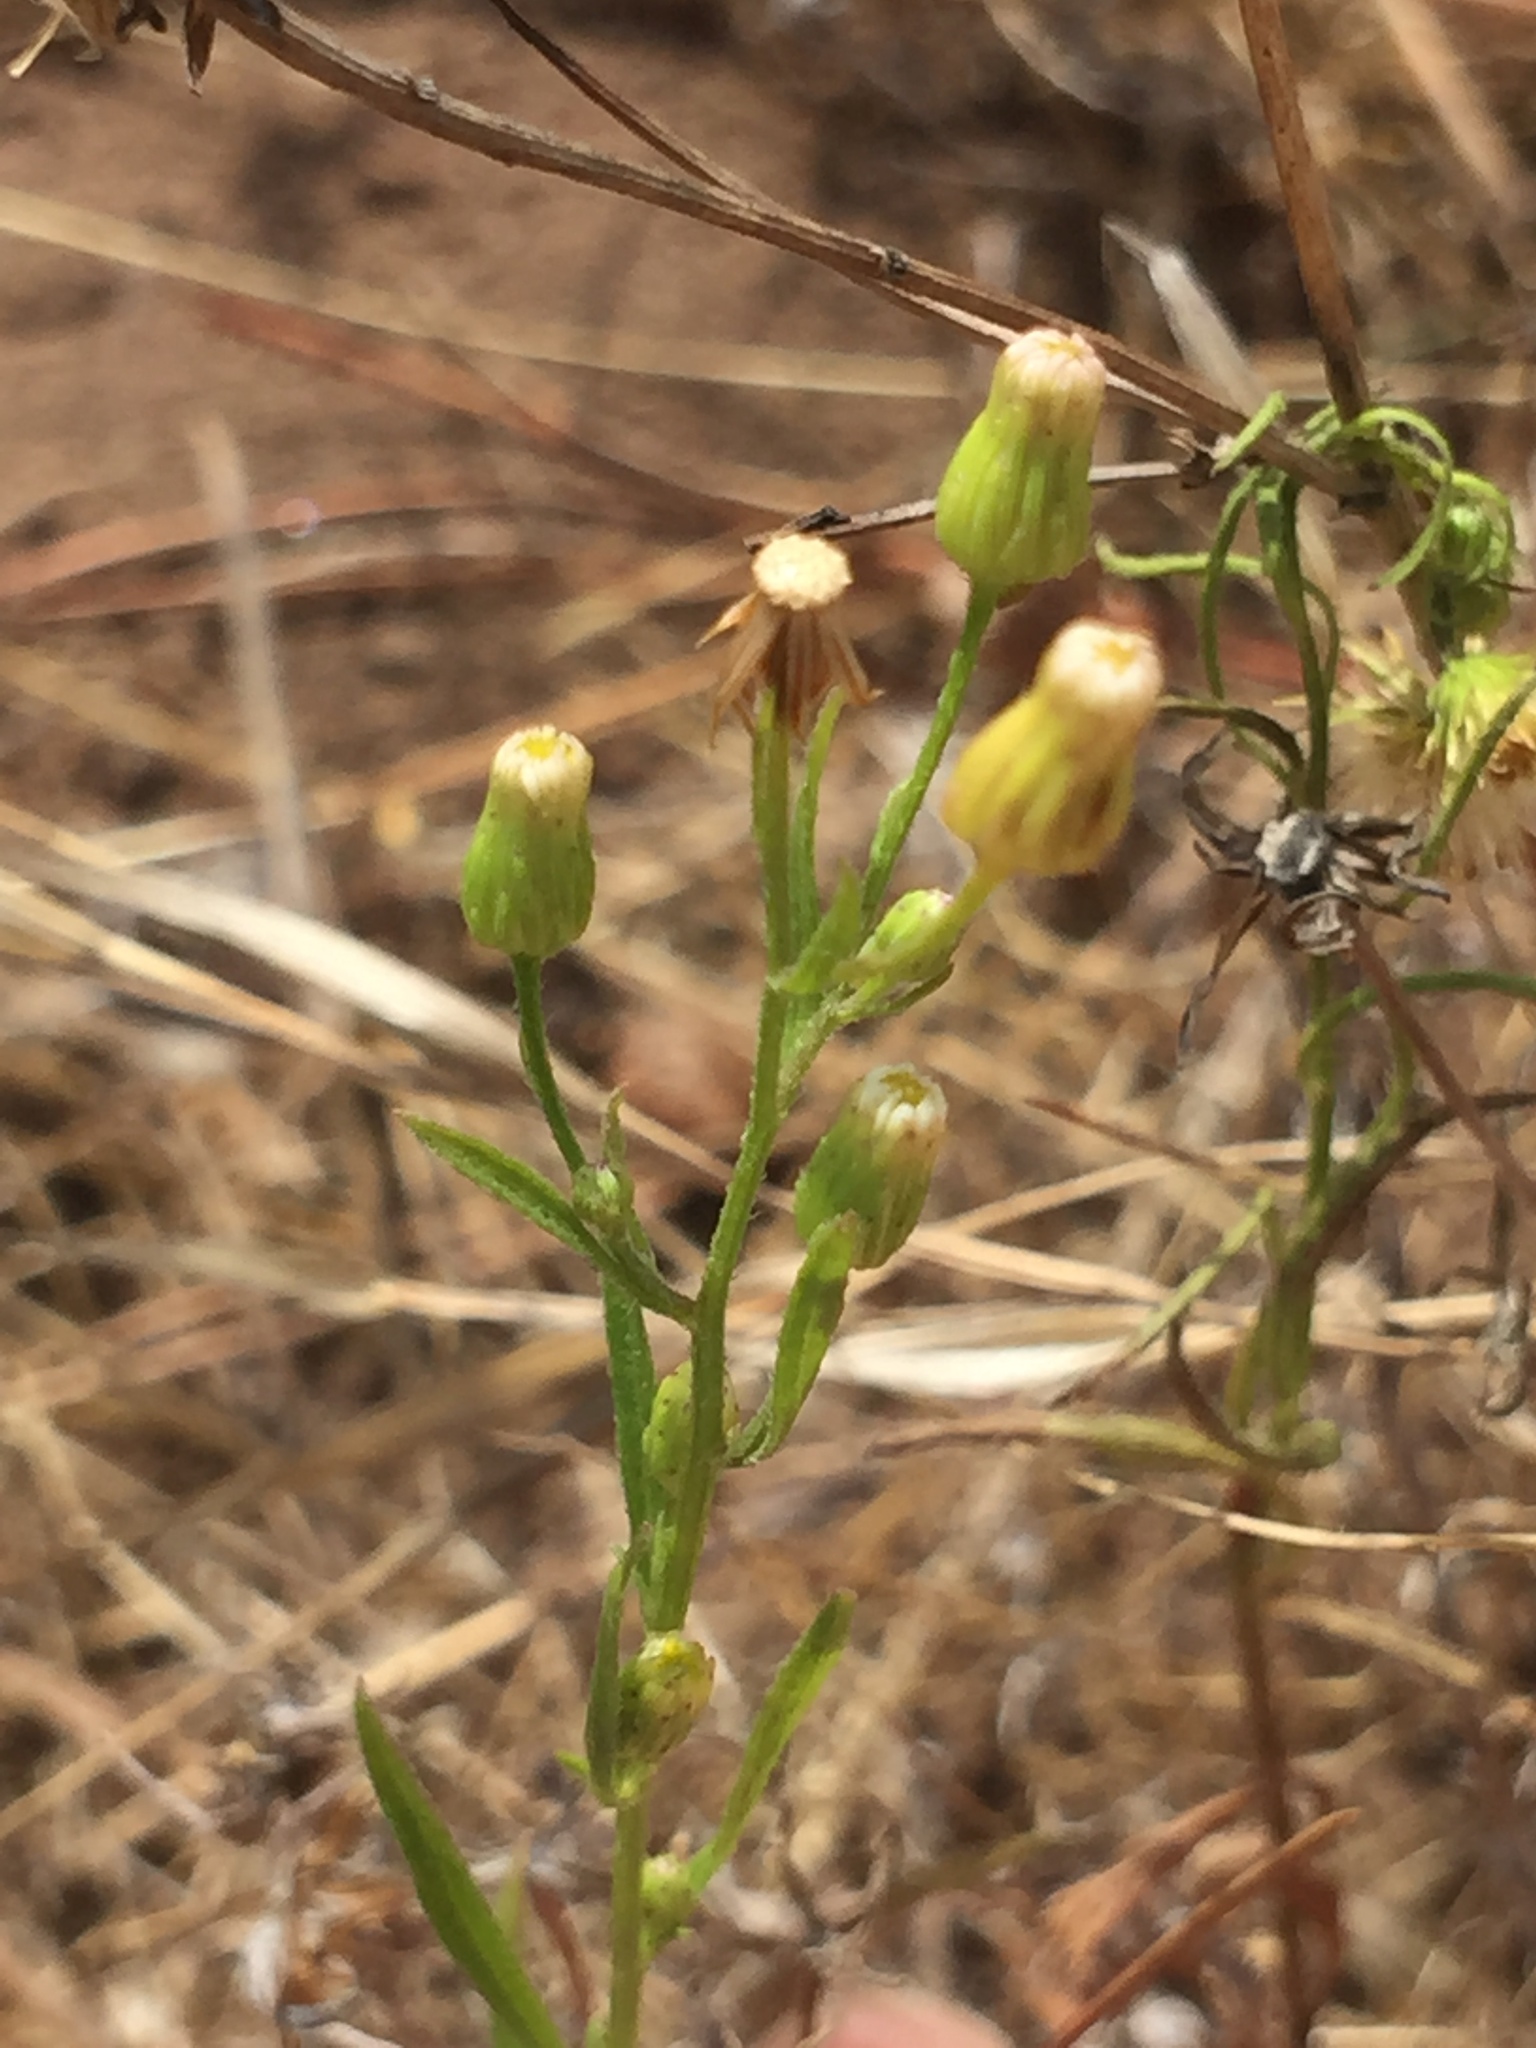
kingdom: Plantae
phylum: Tracheophyta
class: Magnoliopsida
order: Asterales
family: Asteraceae
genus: Erigeron
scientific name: Erigeron canadensis
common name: Canadian fleabane
